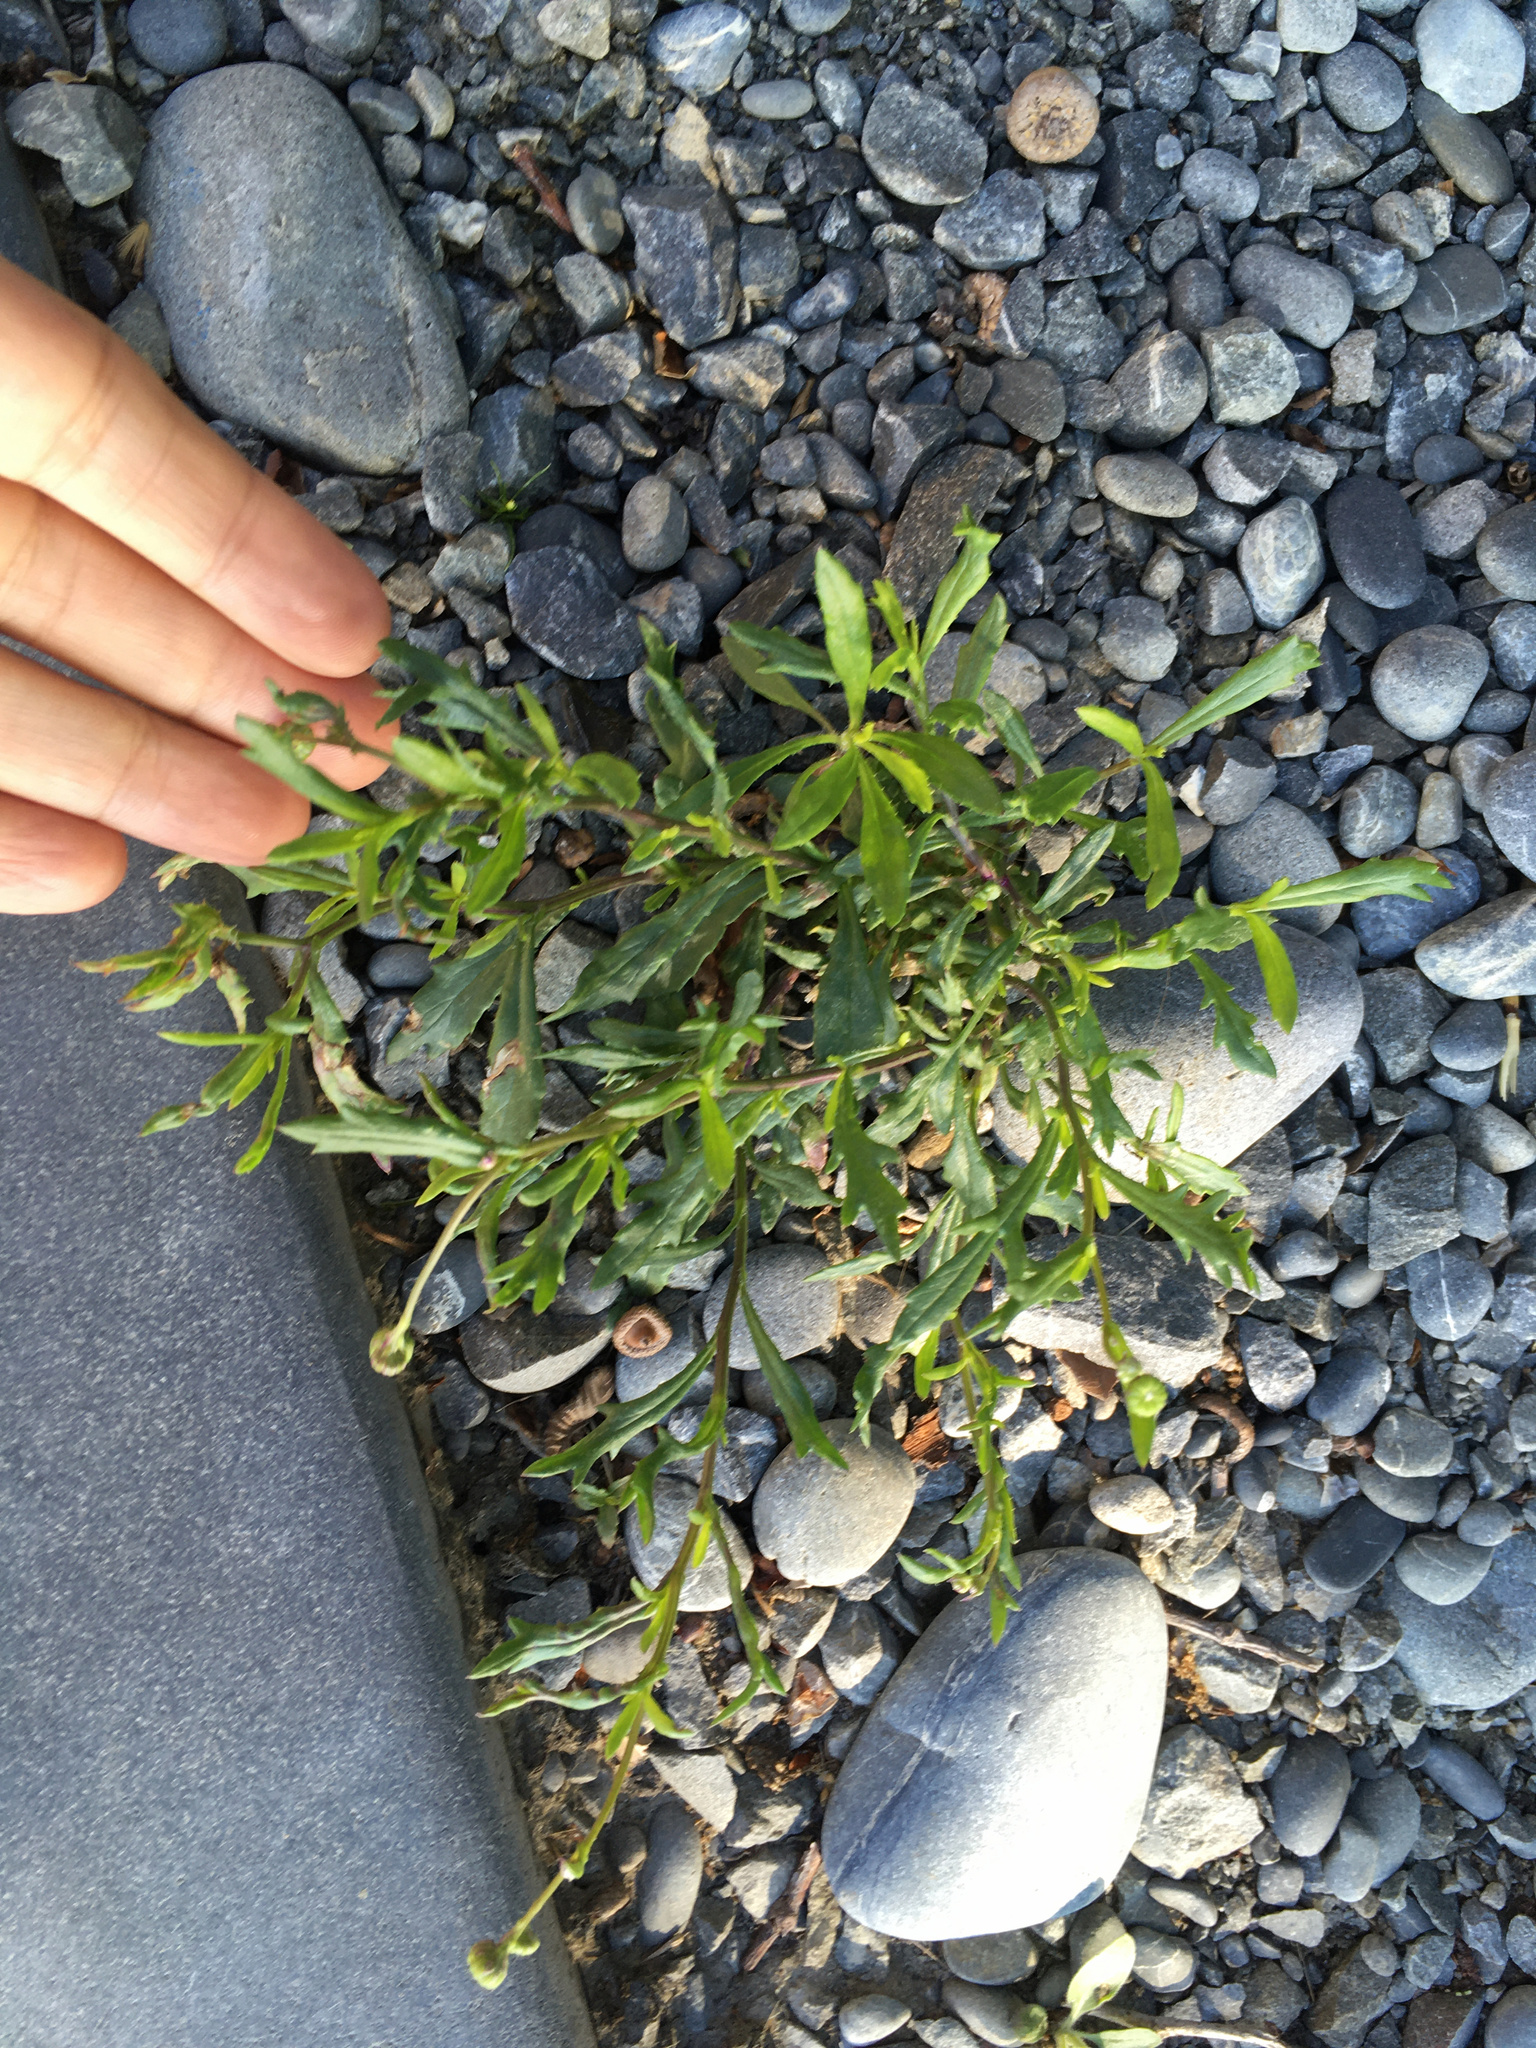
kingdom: Plantae
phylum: Tracheophyta
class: Magnoliopsida
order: Asterales
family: Asteraceae
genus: Senecio
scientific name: Senecio skirrhodon
